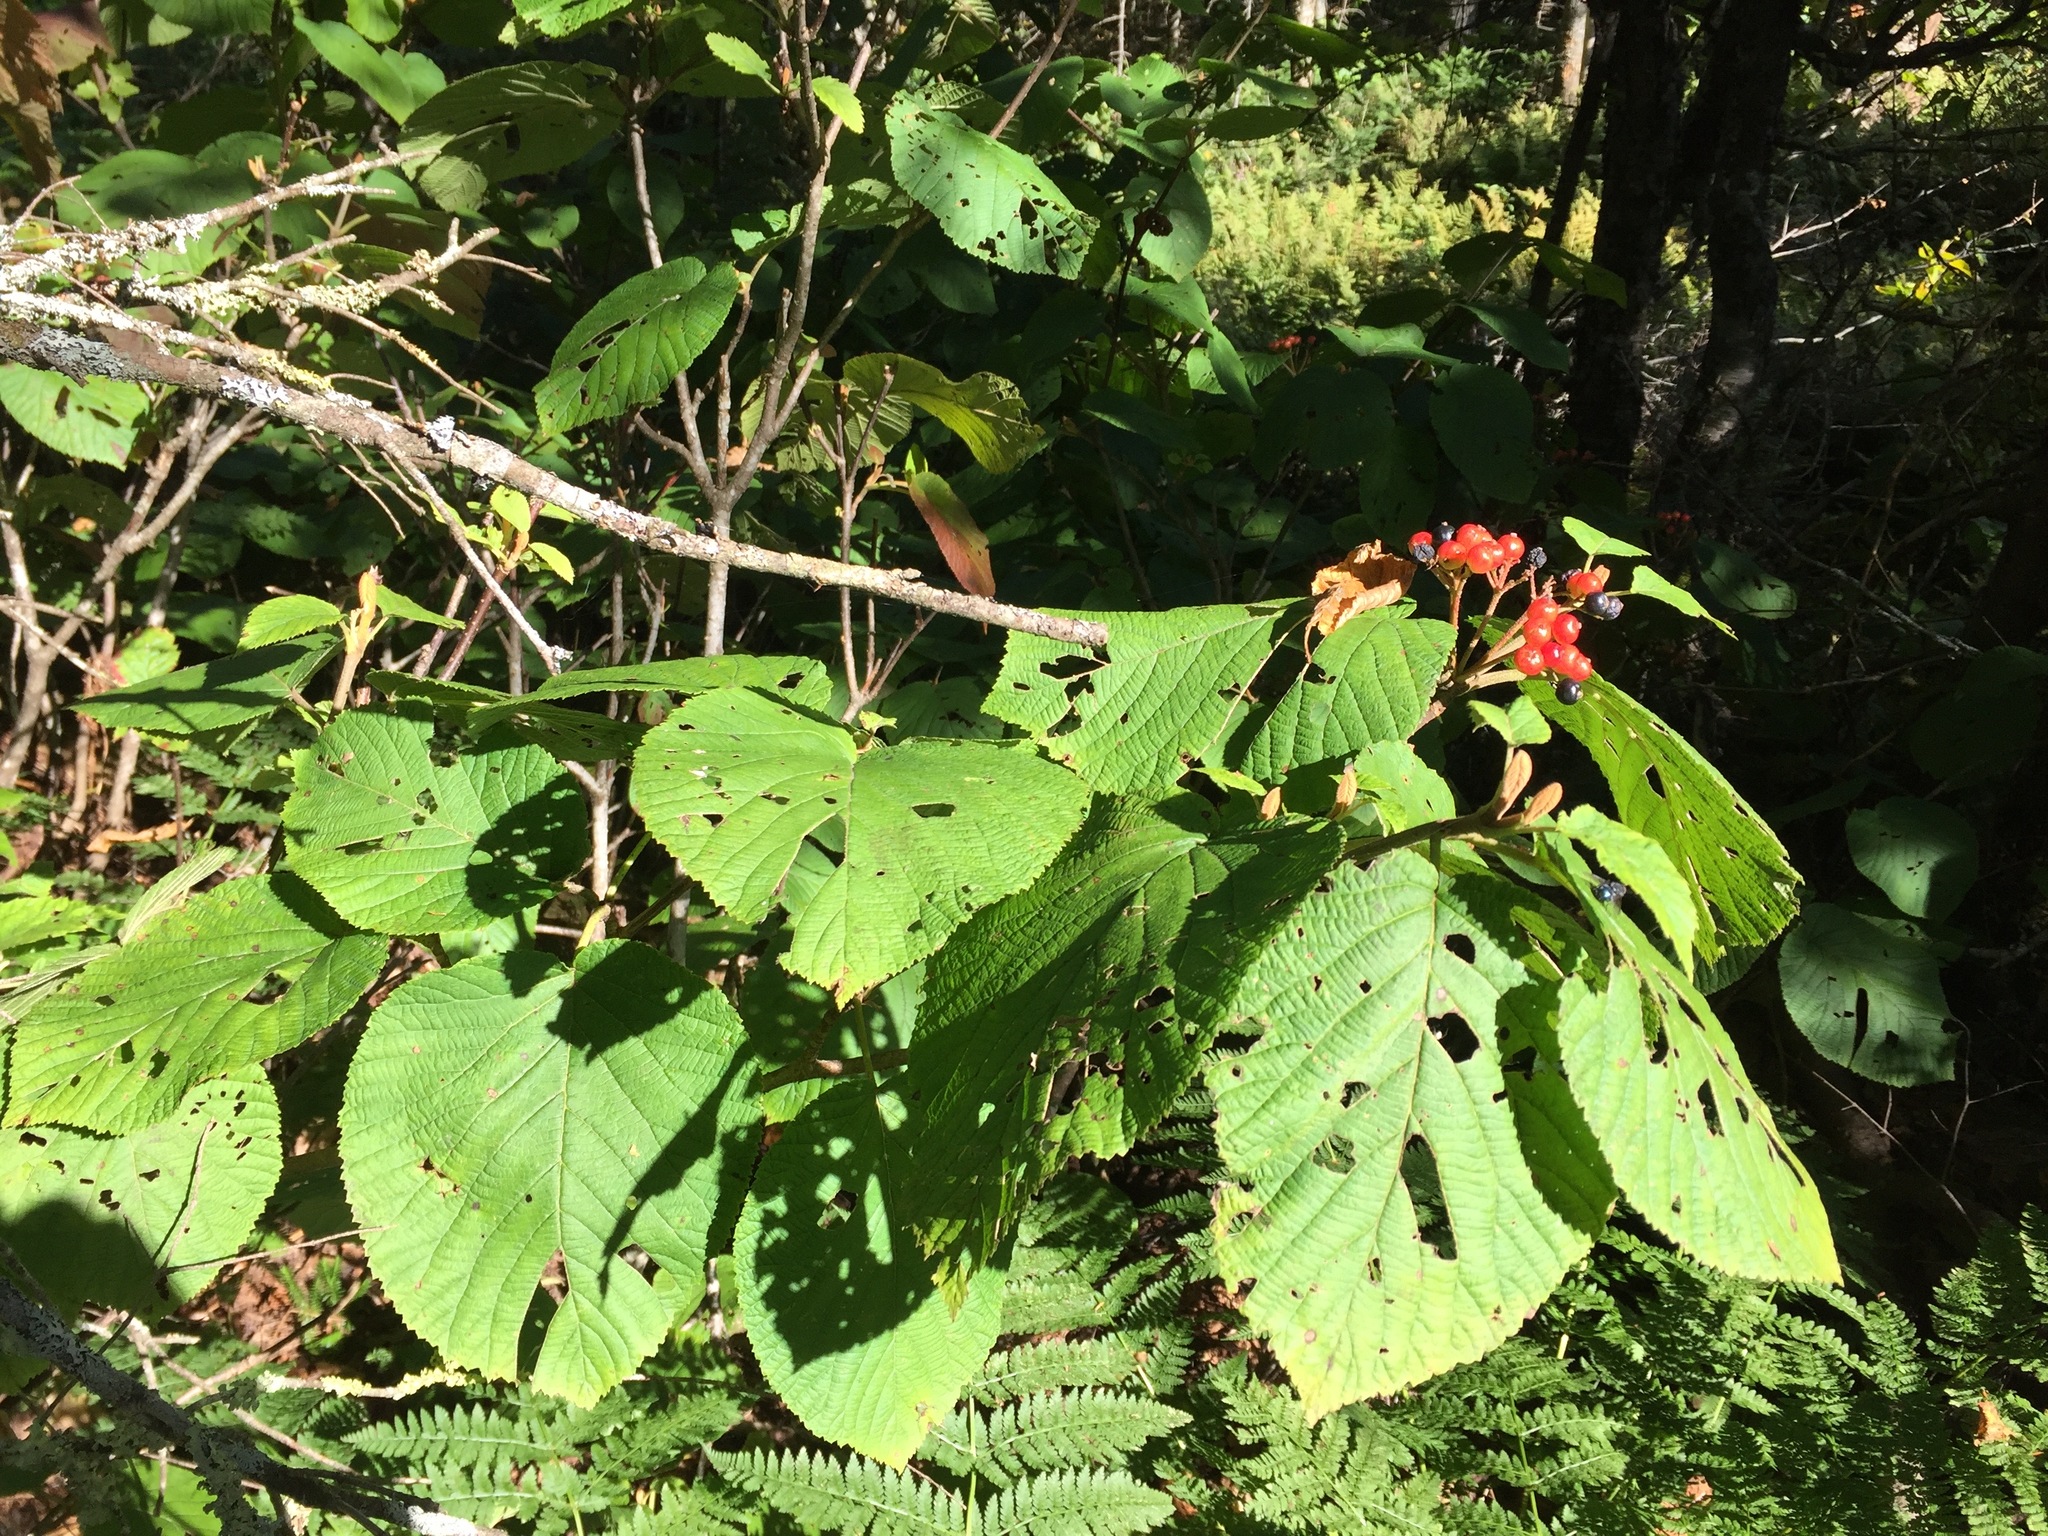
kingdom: Plantae
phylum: Tracheophyta
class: Magnoliopsida
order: Dipsacales
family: Viburnaceae
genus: Viburnum
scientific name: Viburnum lantanoides
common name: Hobblebush
